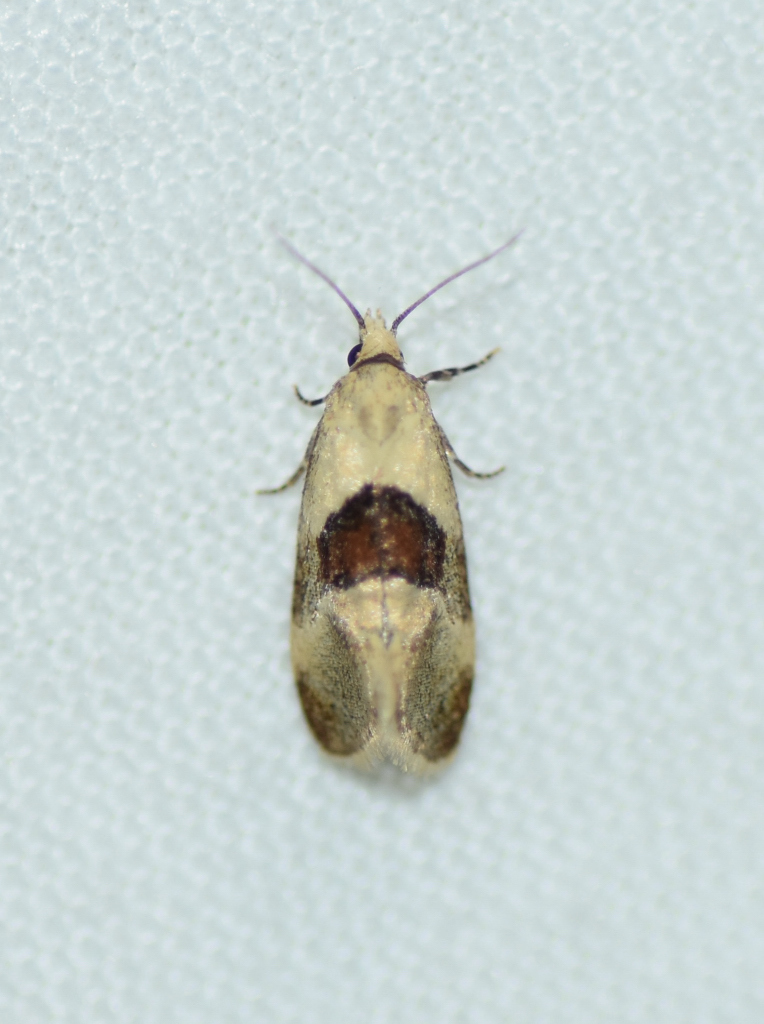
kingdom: Animalia
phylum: Arthropoda
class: Insecta
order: Lepidoptera
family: Tortricidae
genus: Phalonidia
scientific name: Phalonidia lepidana
